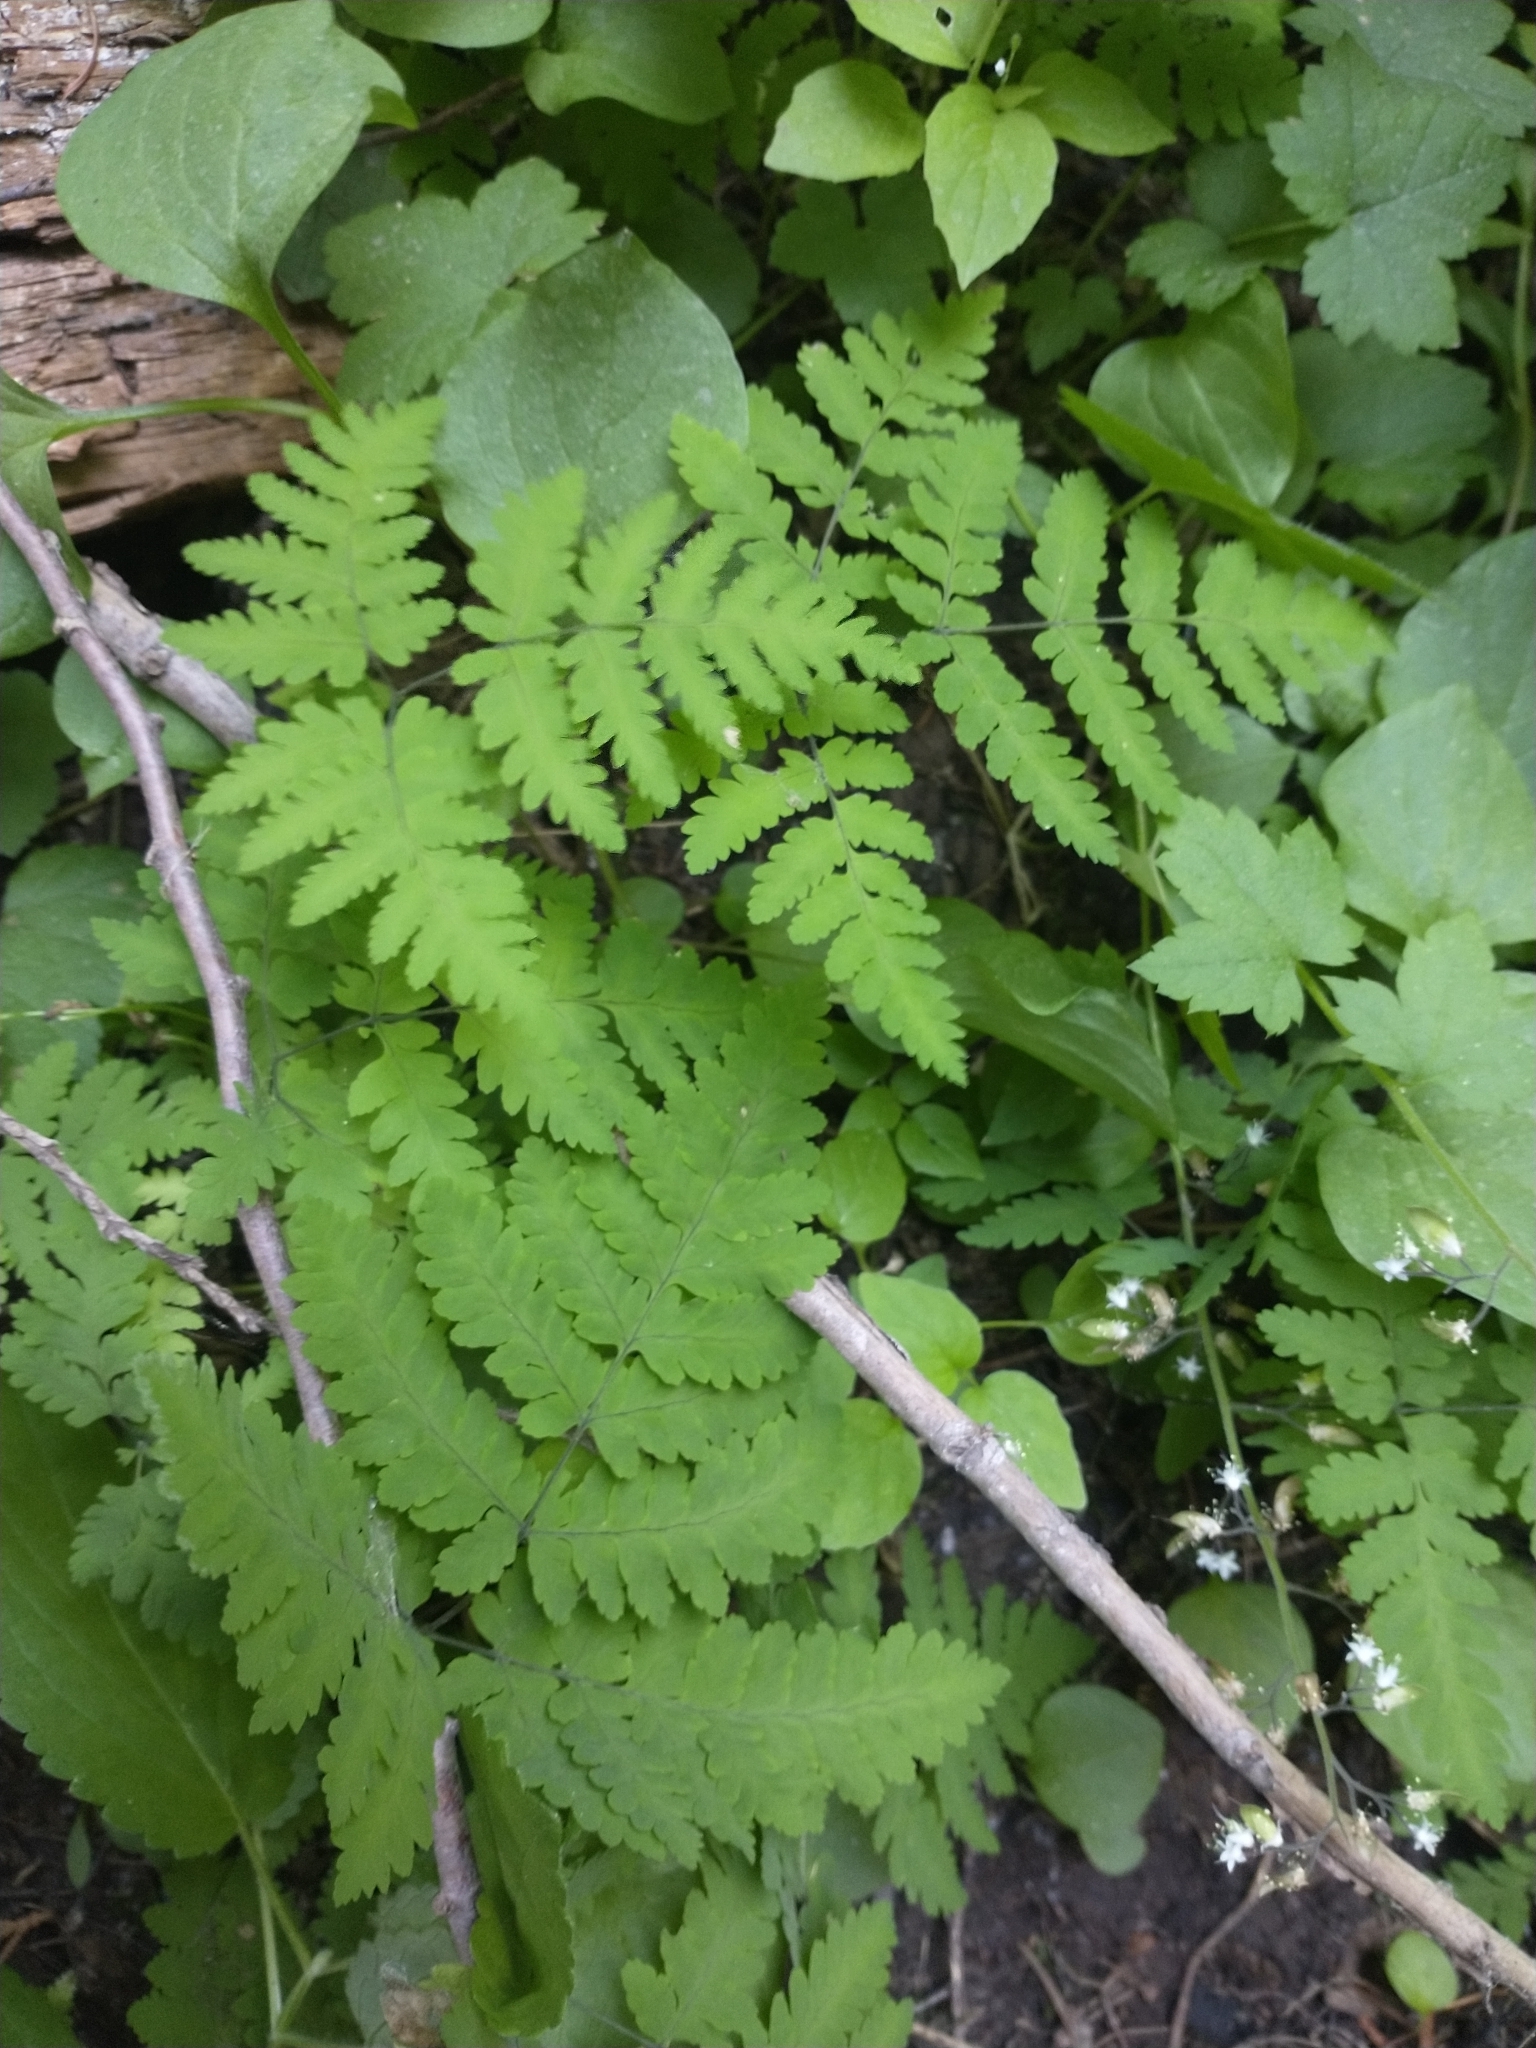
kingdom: Plantae
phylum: Tracheophyta
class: Polypodiopsida
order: Polypodiales
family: Cystopteridaceae
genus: Gymnocarpium
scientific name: Gymnocarpium disjunctum
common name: Western oak fern
